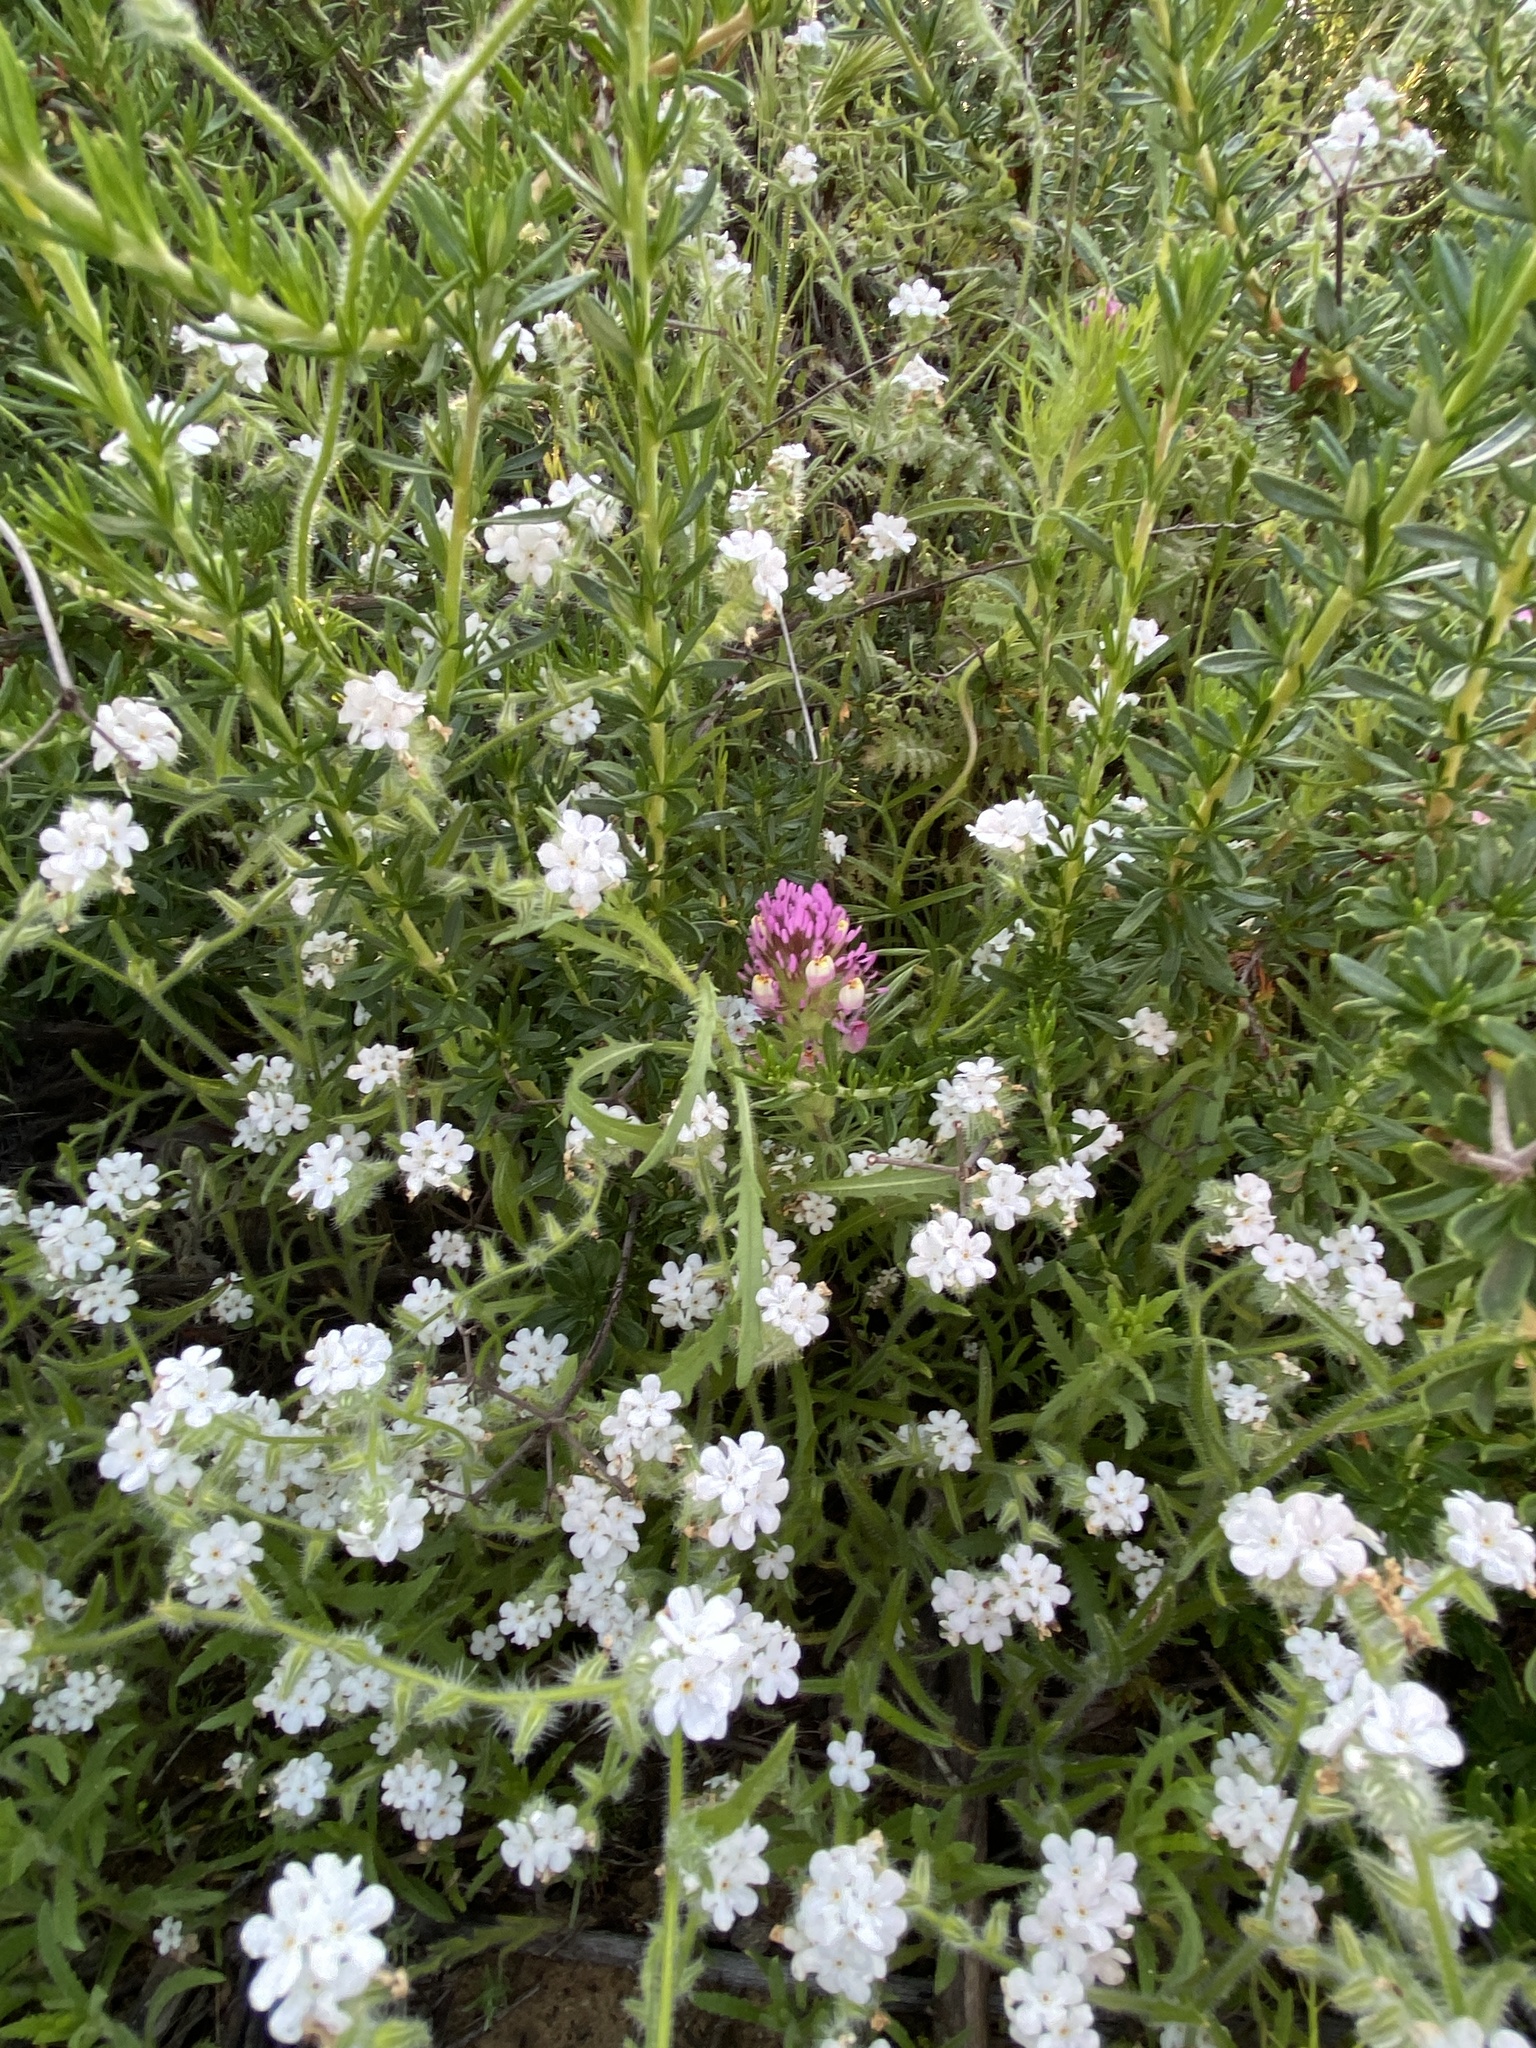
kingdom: Plantae
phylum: Tracheophyta
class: Magnoliopsida
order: Lamiales
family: Orobanchaceae
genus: Castilleja
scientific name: Castilleja exserta
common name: Purple owl-clover
